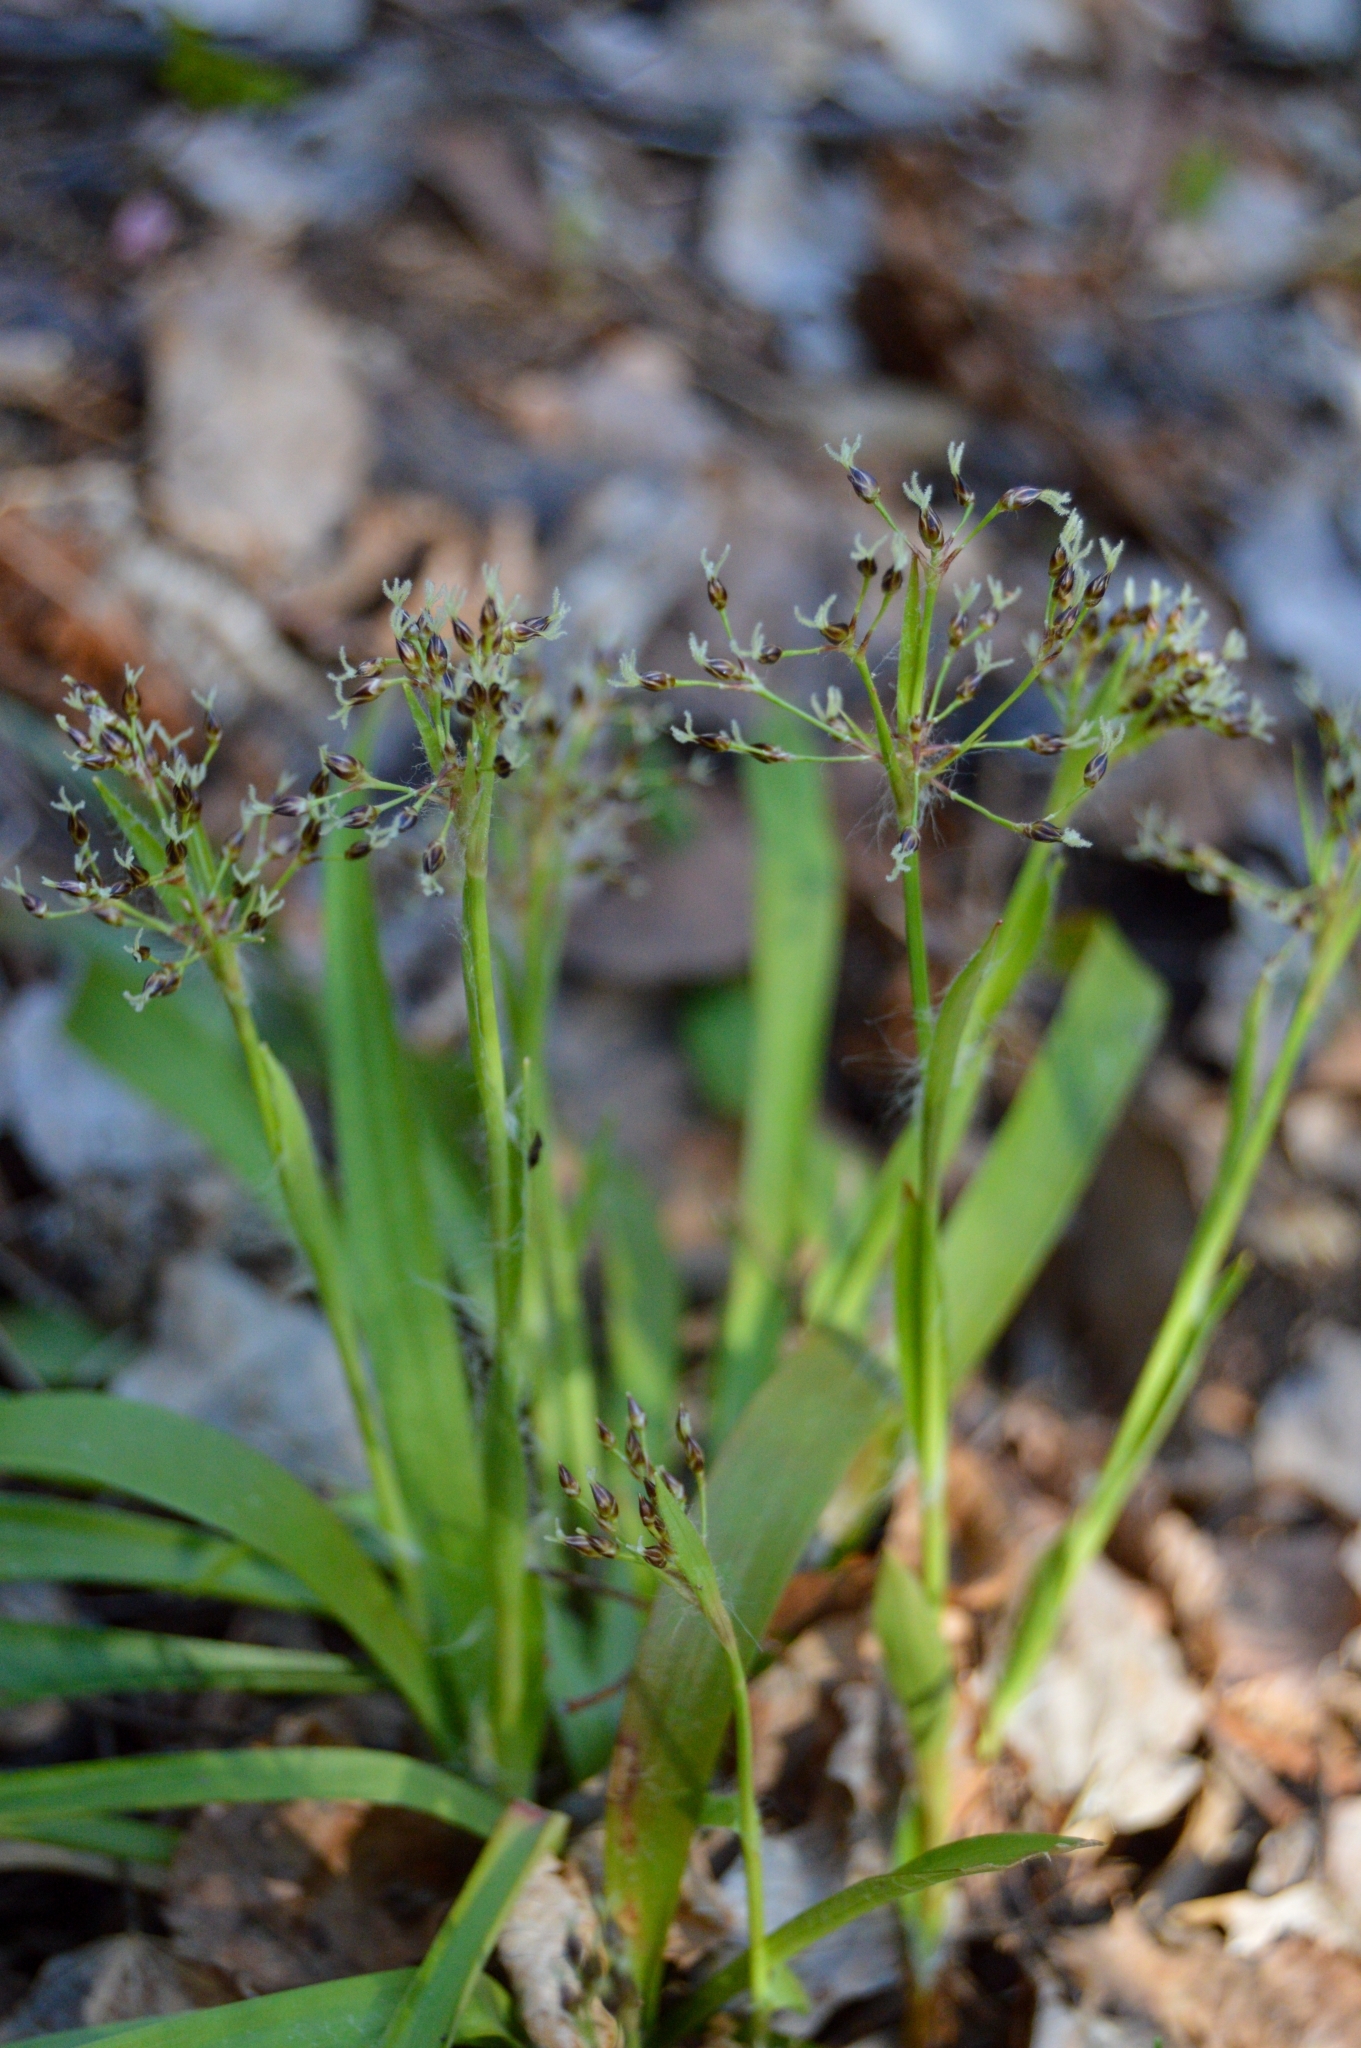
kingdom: Plantae
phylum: Tracheophyta
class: Liliopsida
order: Poales
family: Juncaceae
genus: Luzula
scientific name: Luzula pilosa
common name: Hairy wood-rush
